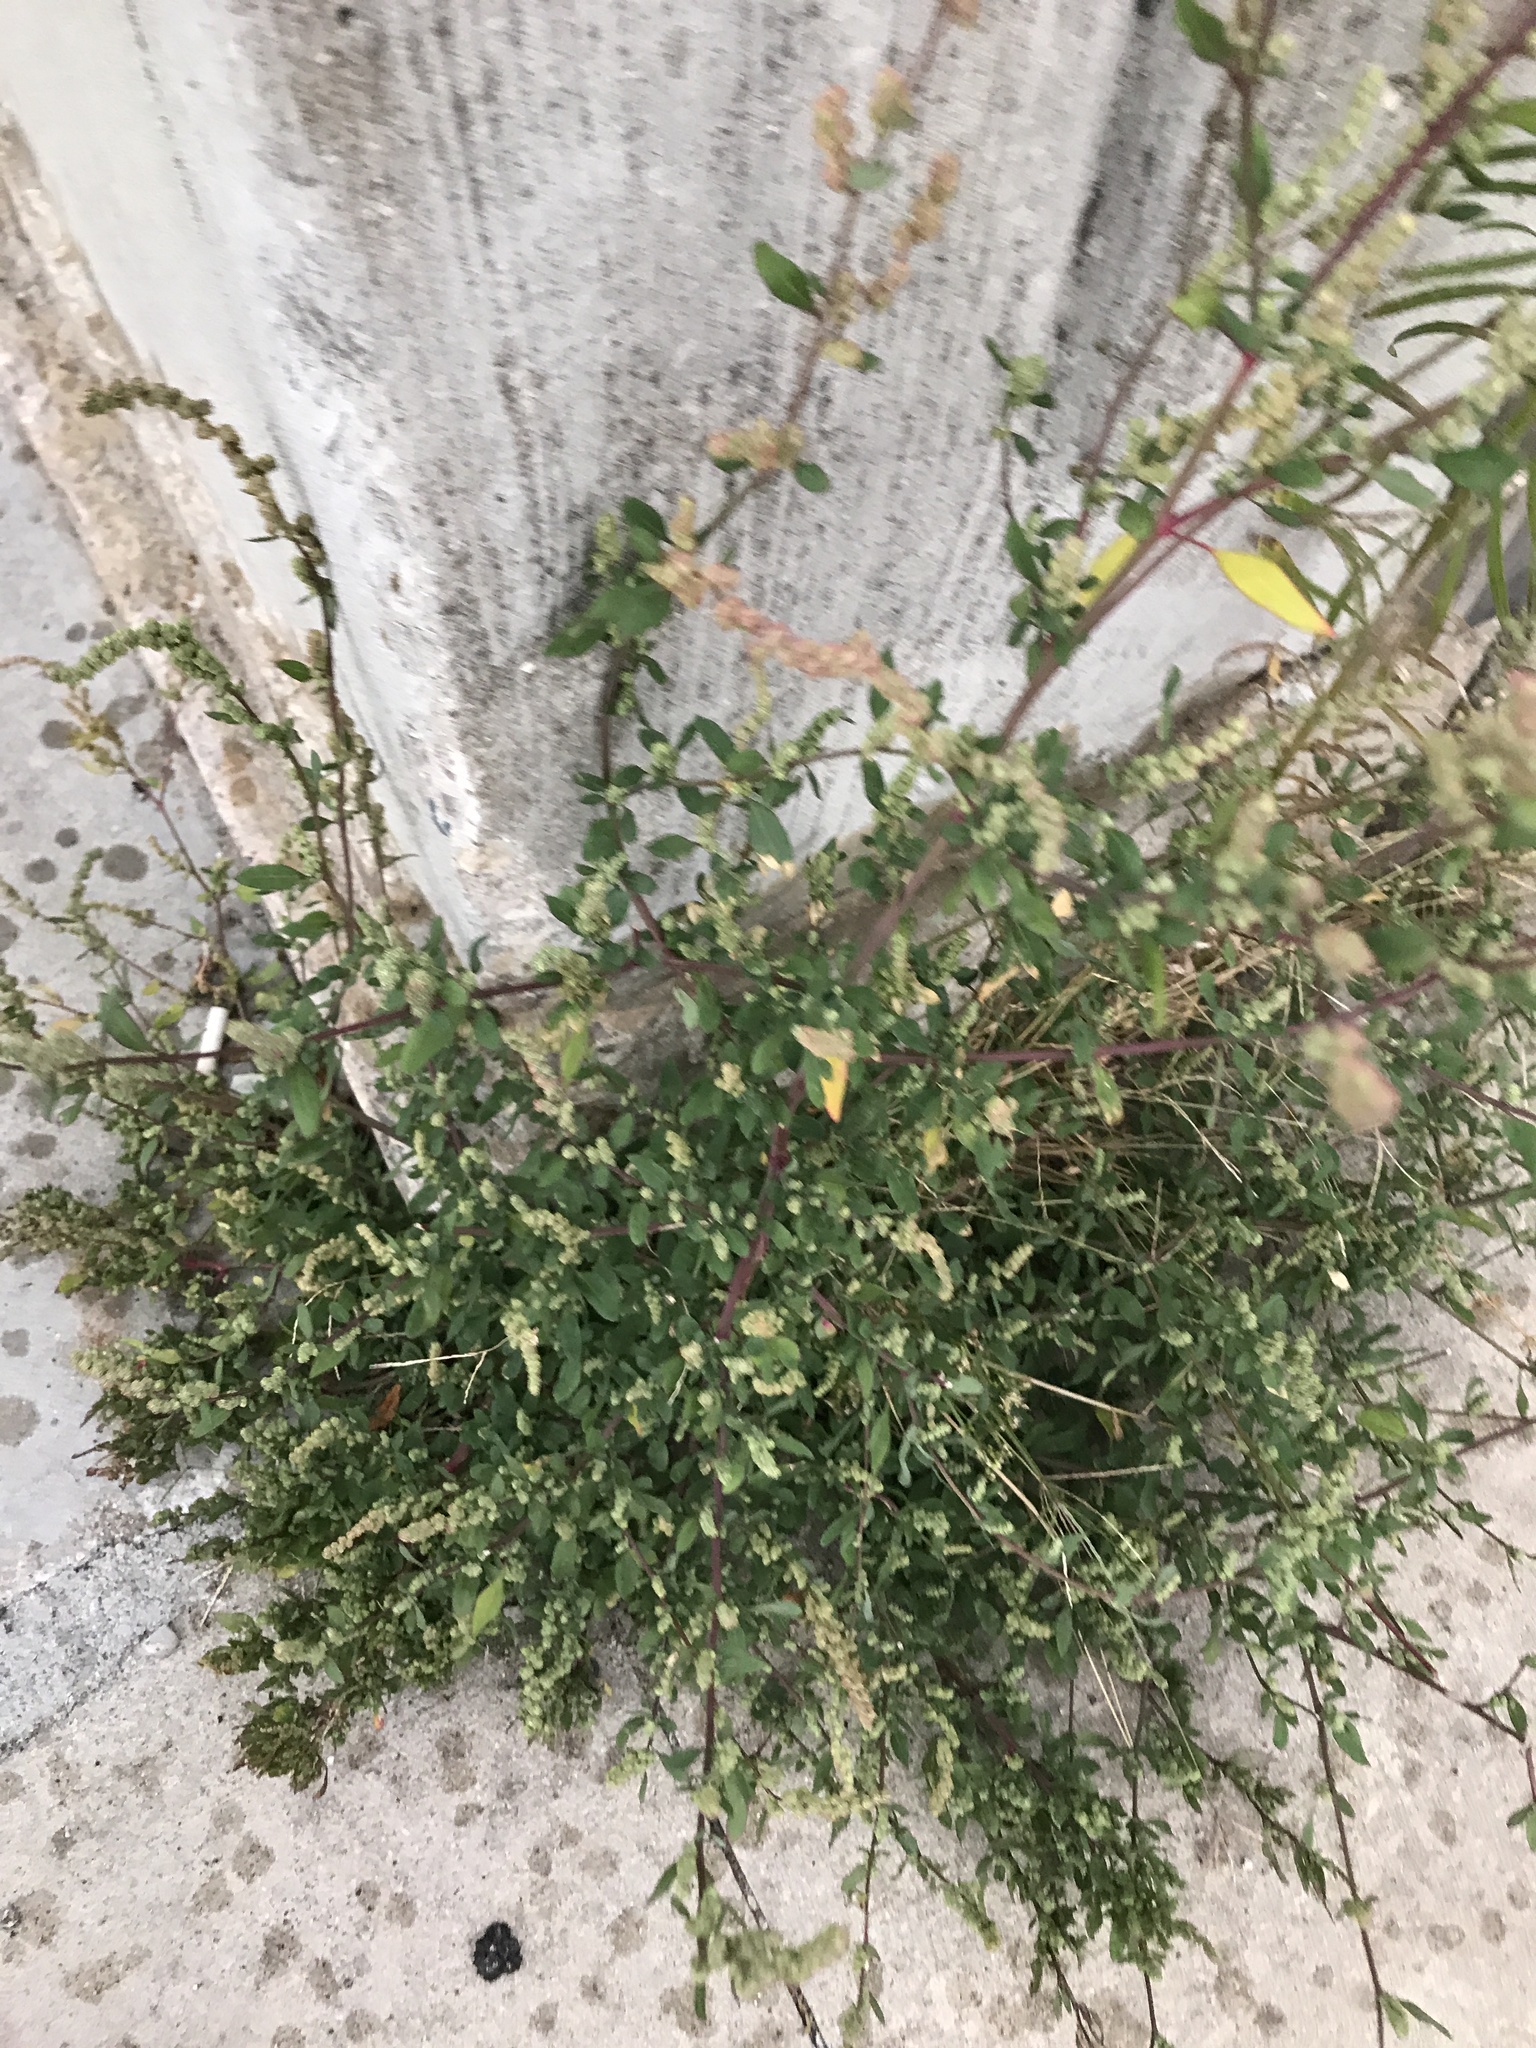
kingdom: Plantae
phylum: Tracheophyta
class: Magnoliopsida
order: Caryophyllales
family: Polygonaceae
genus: Polygonum
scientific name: Polygonum aviculare
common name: Prostrate knotweed
